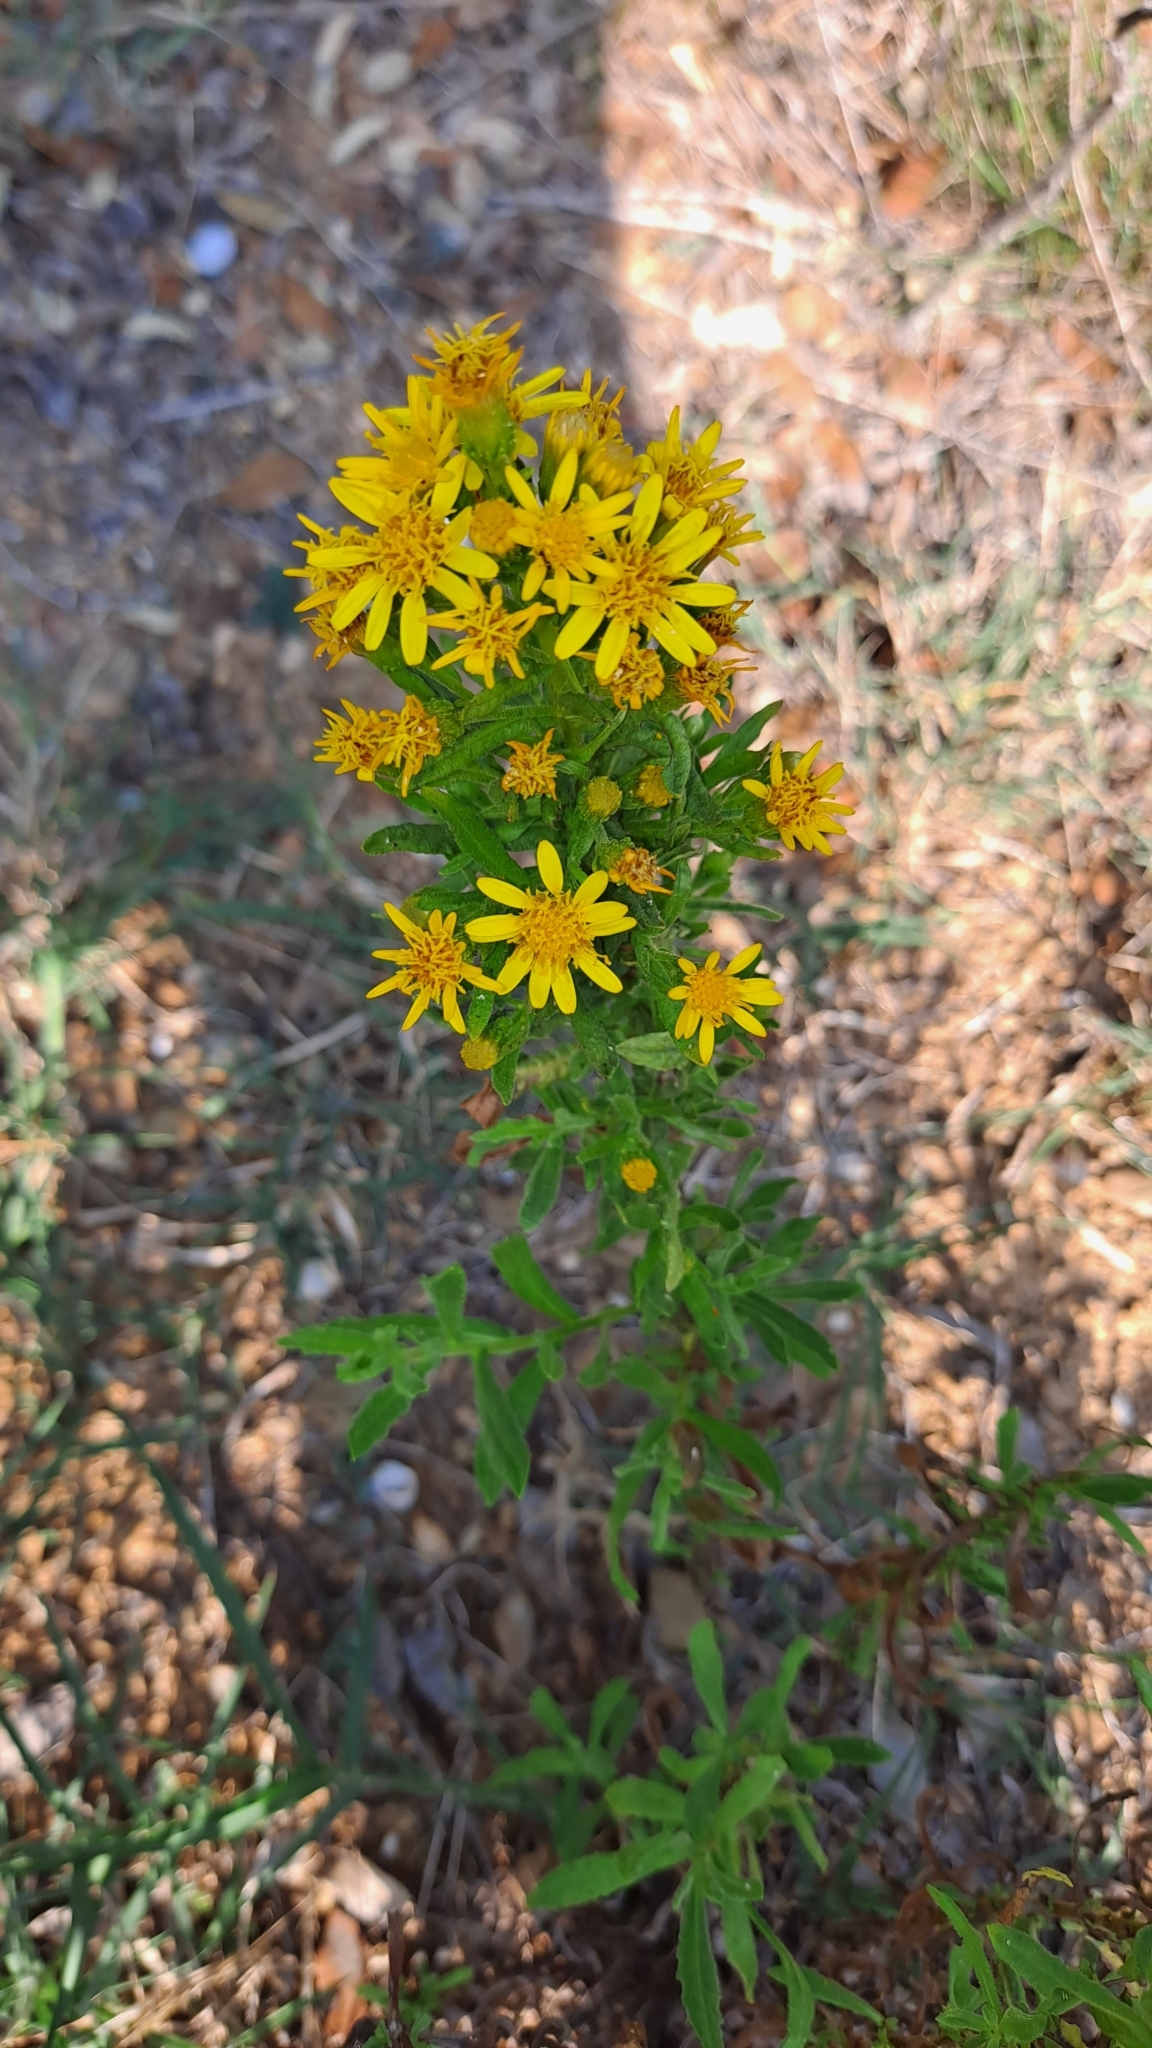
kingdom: Plantae
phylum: Tracheophyta
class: Magnoliopsida
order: Asterales
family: Asteraceae
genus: Dittrichia
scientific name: Dittrichia viscosa
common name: Woody fleabane
